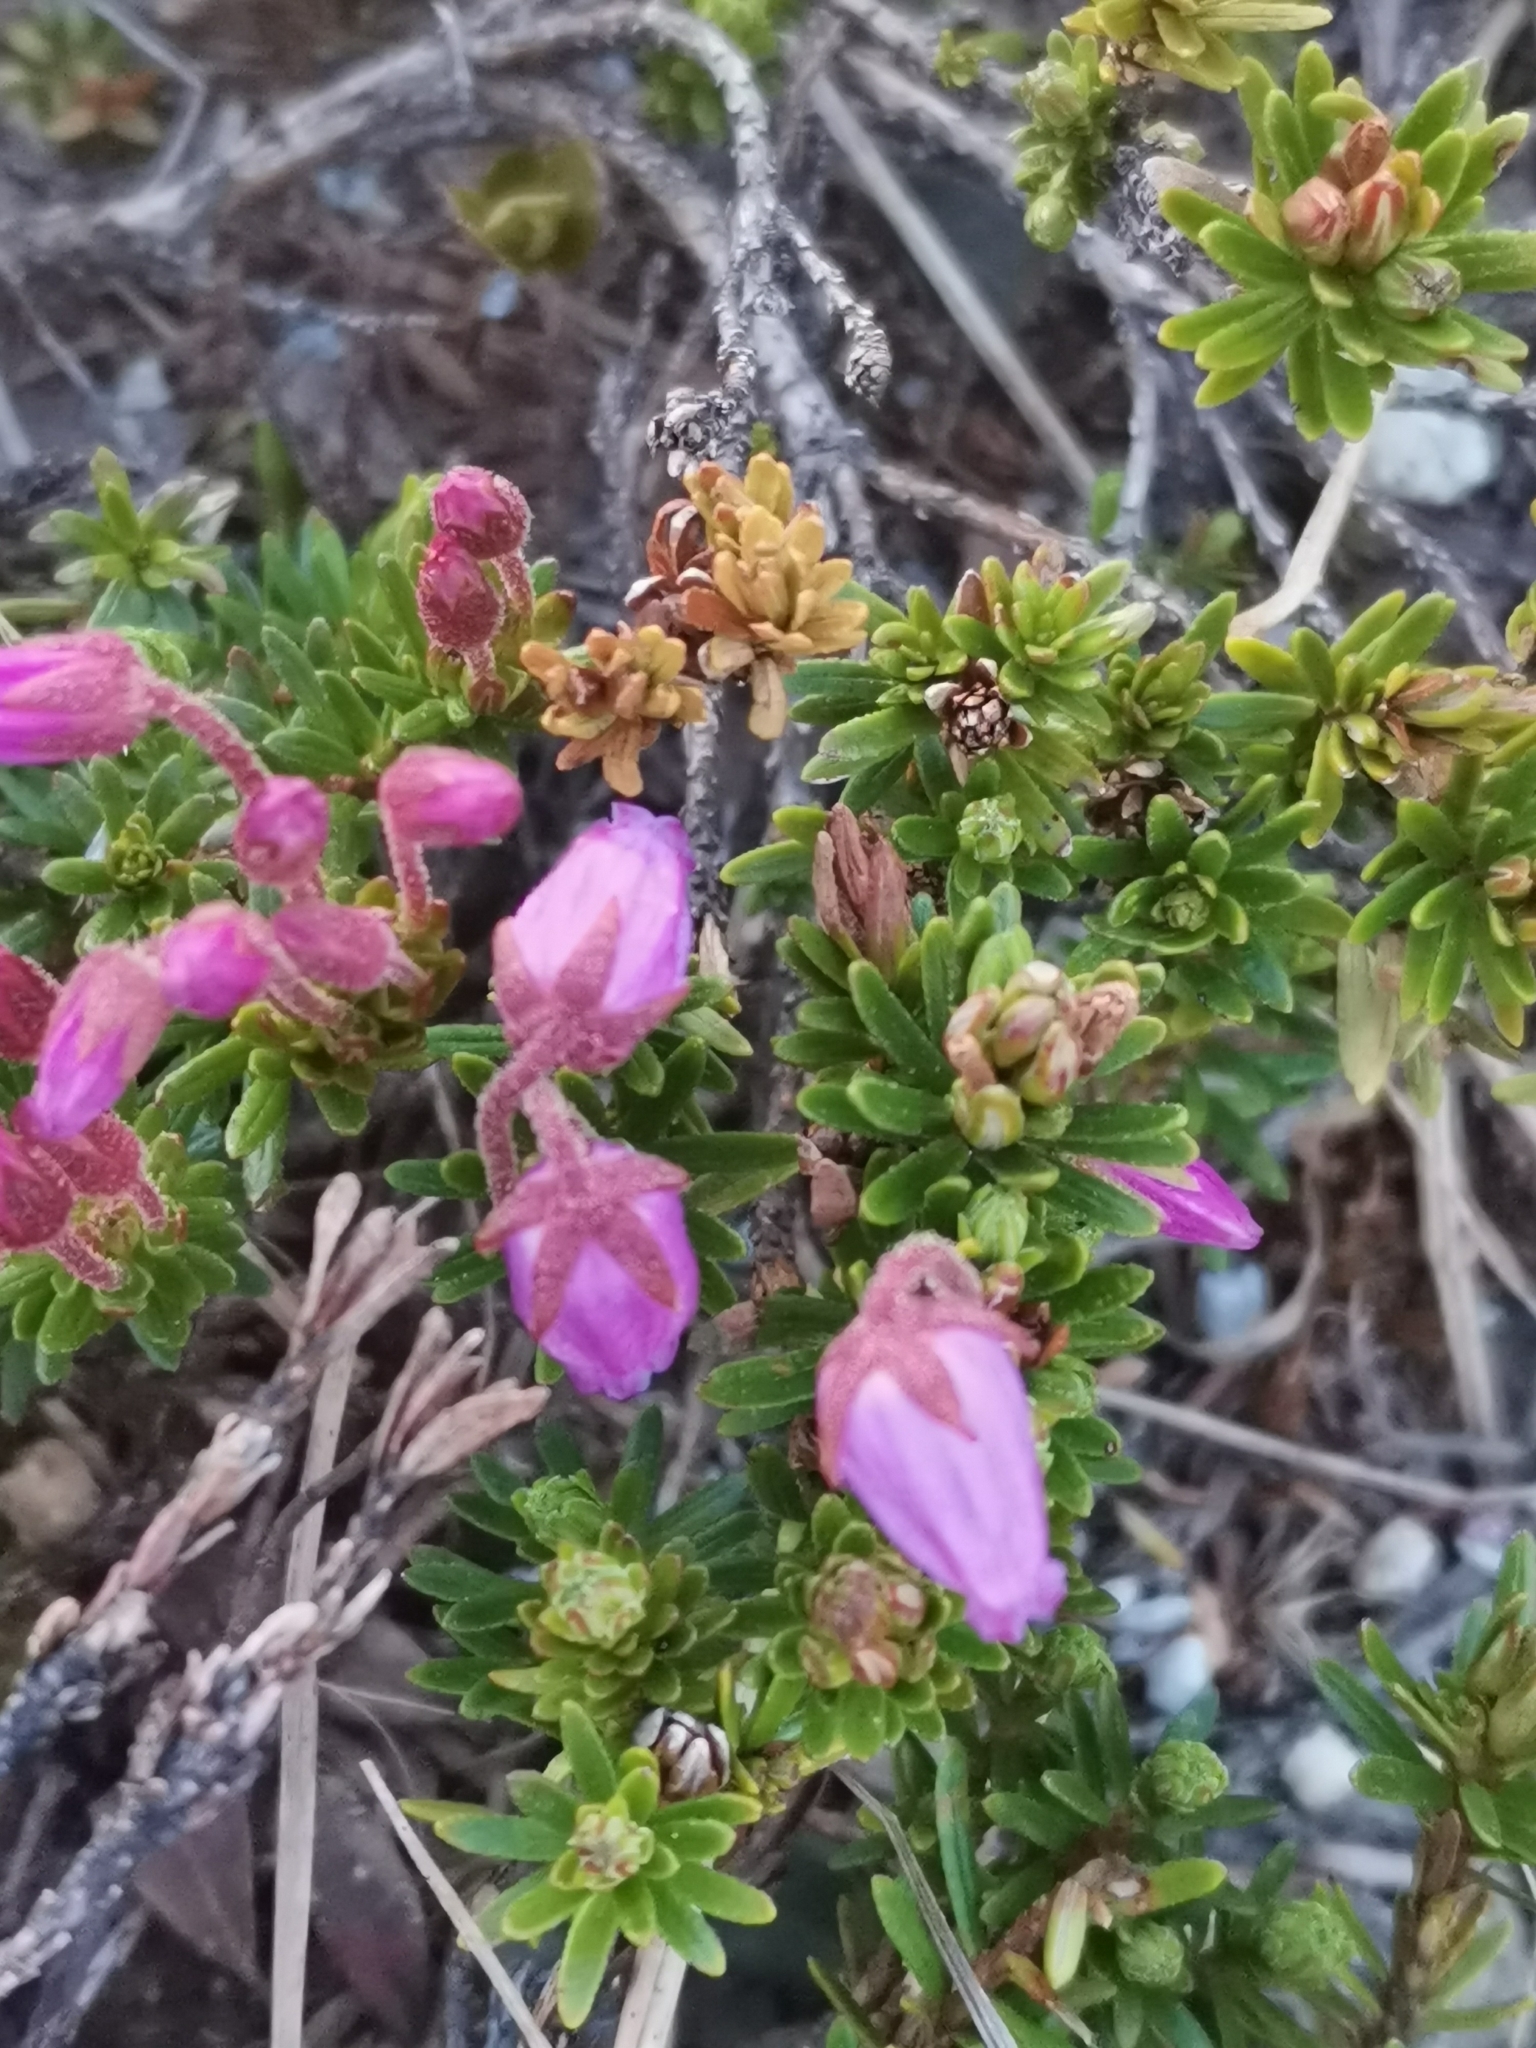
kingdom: Plantae
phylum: Tracheophyta
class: Magnoliopsida
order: Ericales
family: Ericaceae
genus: Phyllodoce
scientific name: Phyllodoce caerulea
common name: Blue heath
